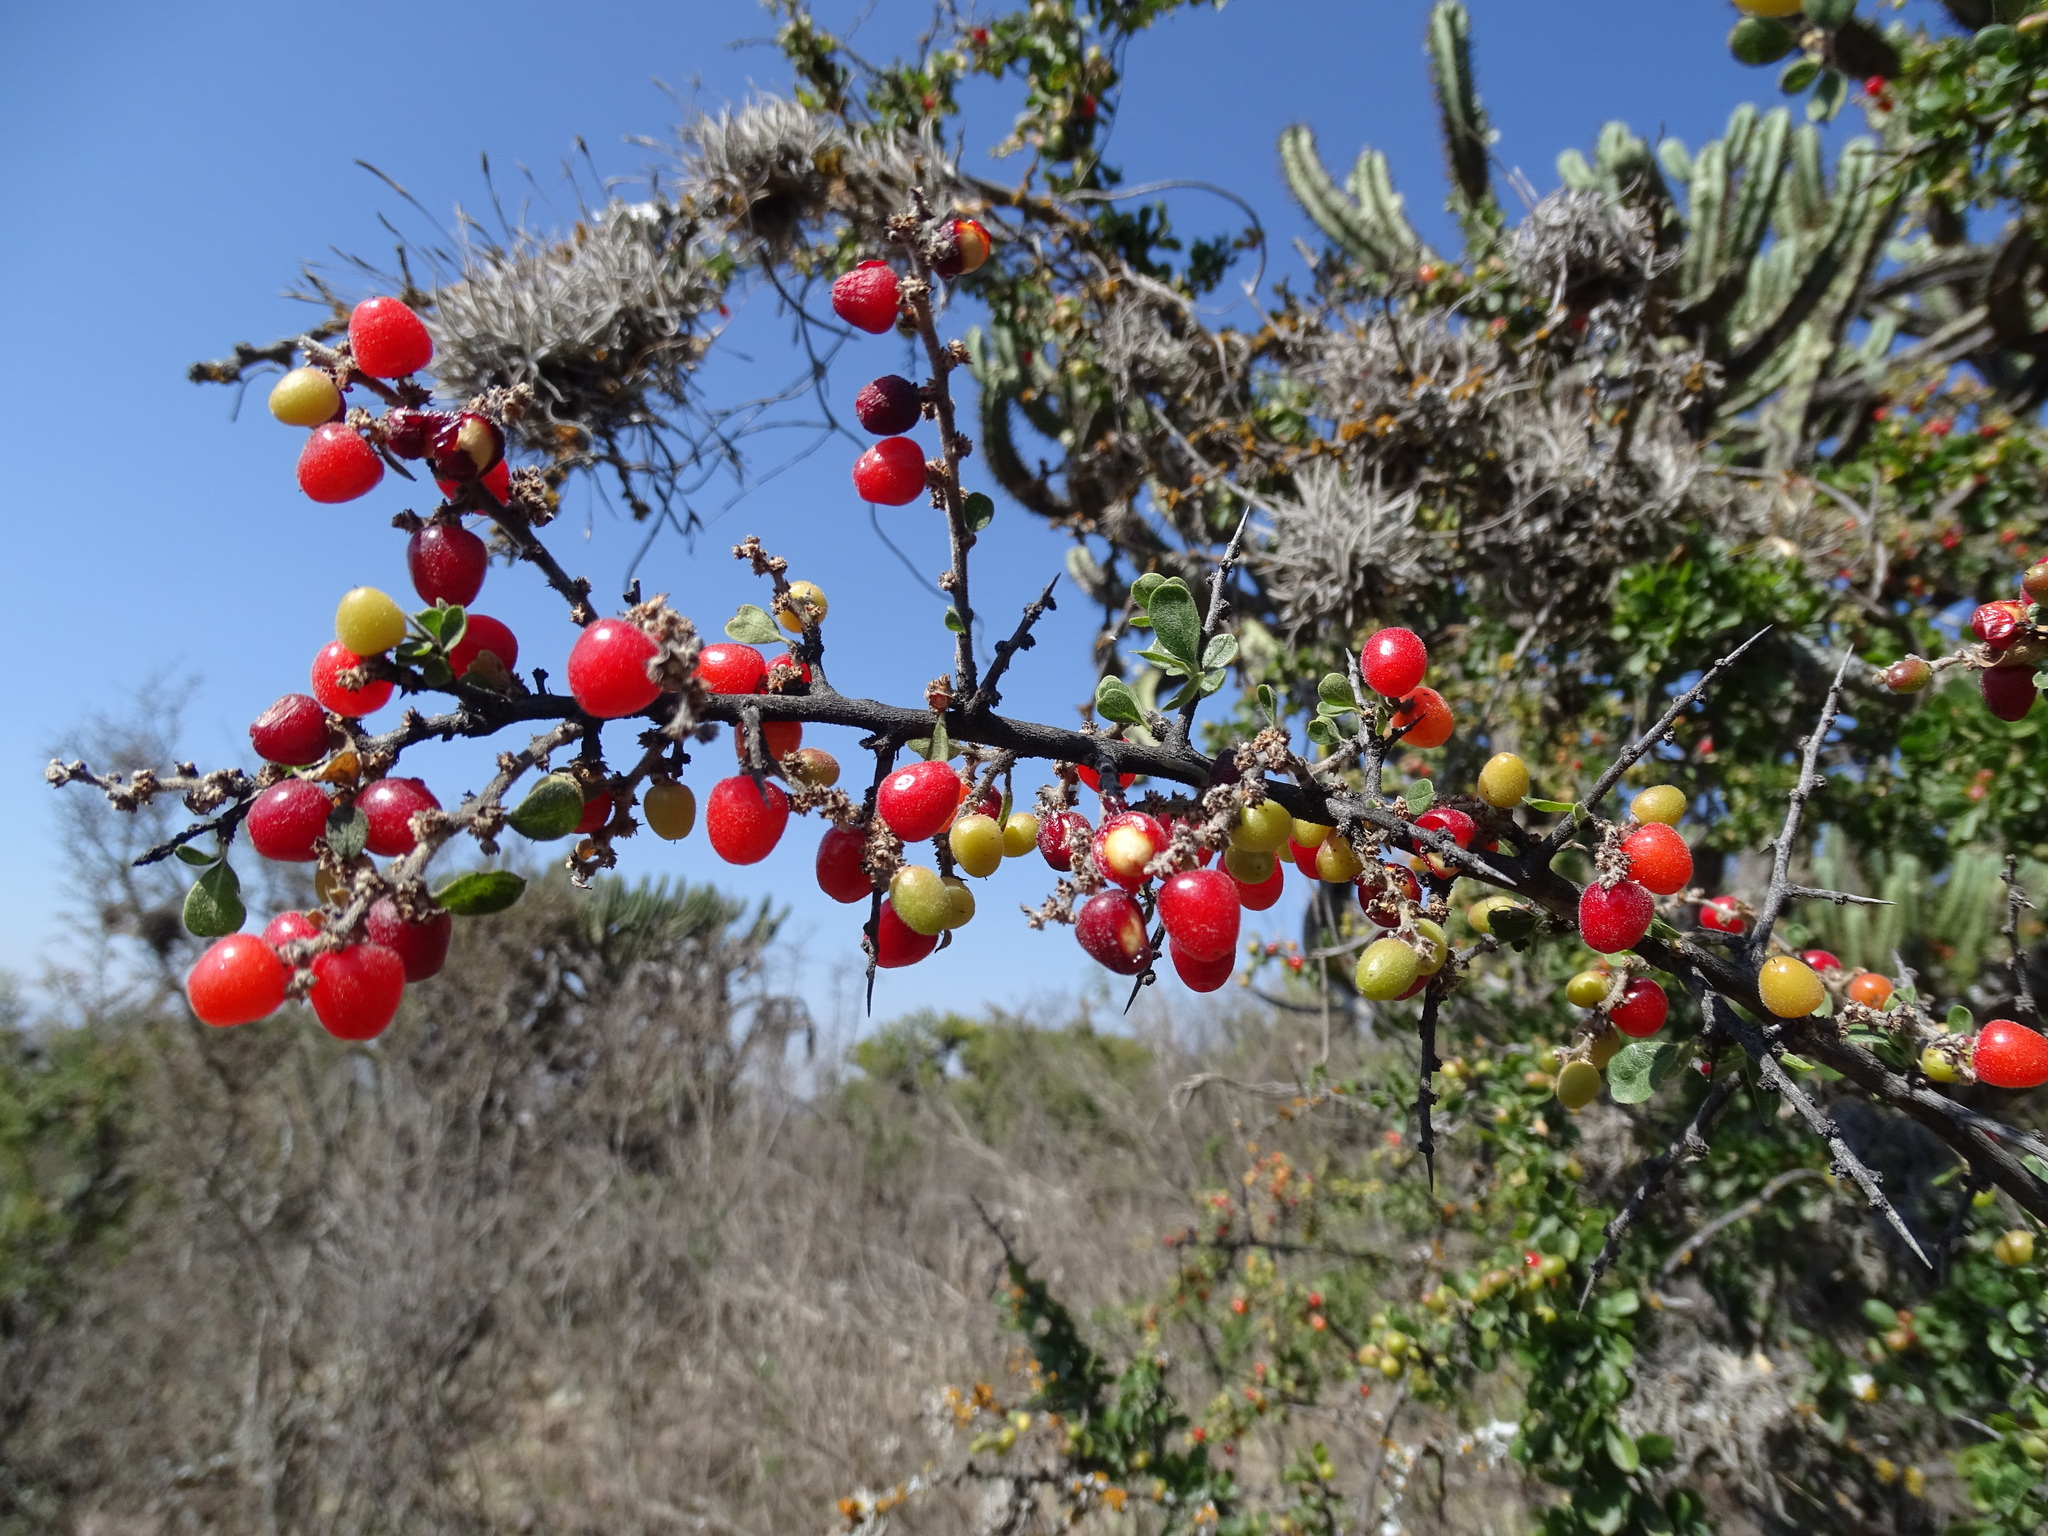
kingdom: Plantae
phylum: Tracheophyta
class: Magnoliopsida
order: Rosales
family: Rhamnaceae
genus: Condalia
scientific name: Condalia velutina
